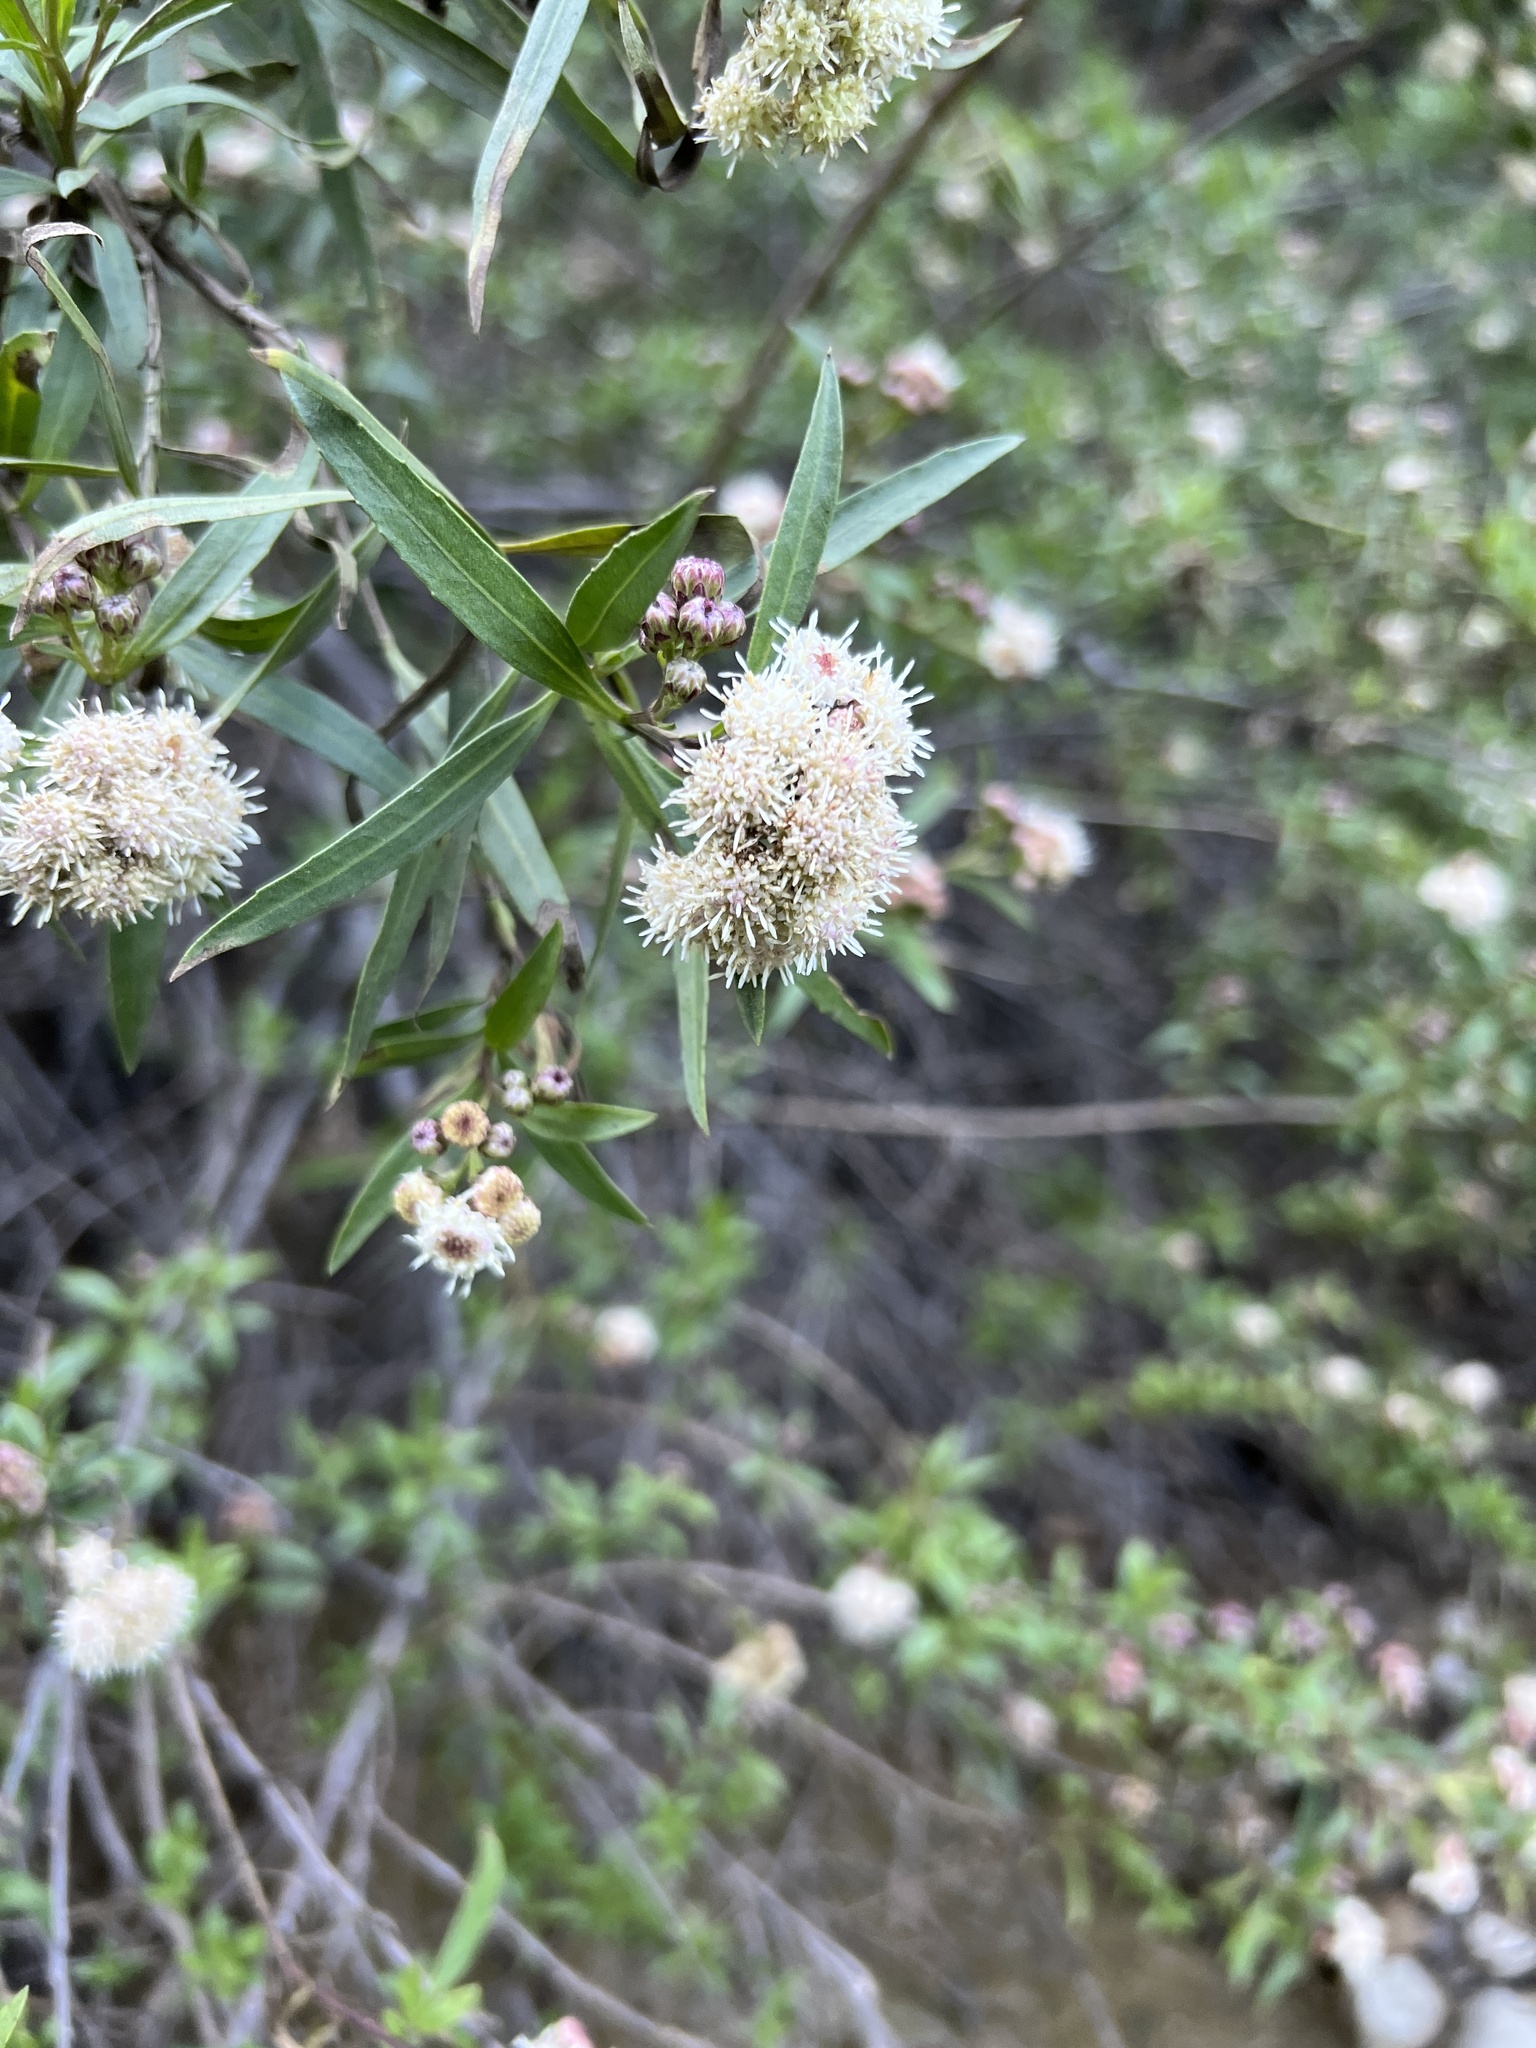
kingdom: Plantae
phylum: Tracheophyta
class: Magnoliopsida
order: Asterales
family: Asteraceae
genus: Baccharis
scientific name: Baccharis salicifolia
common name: Sticky baccharis
